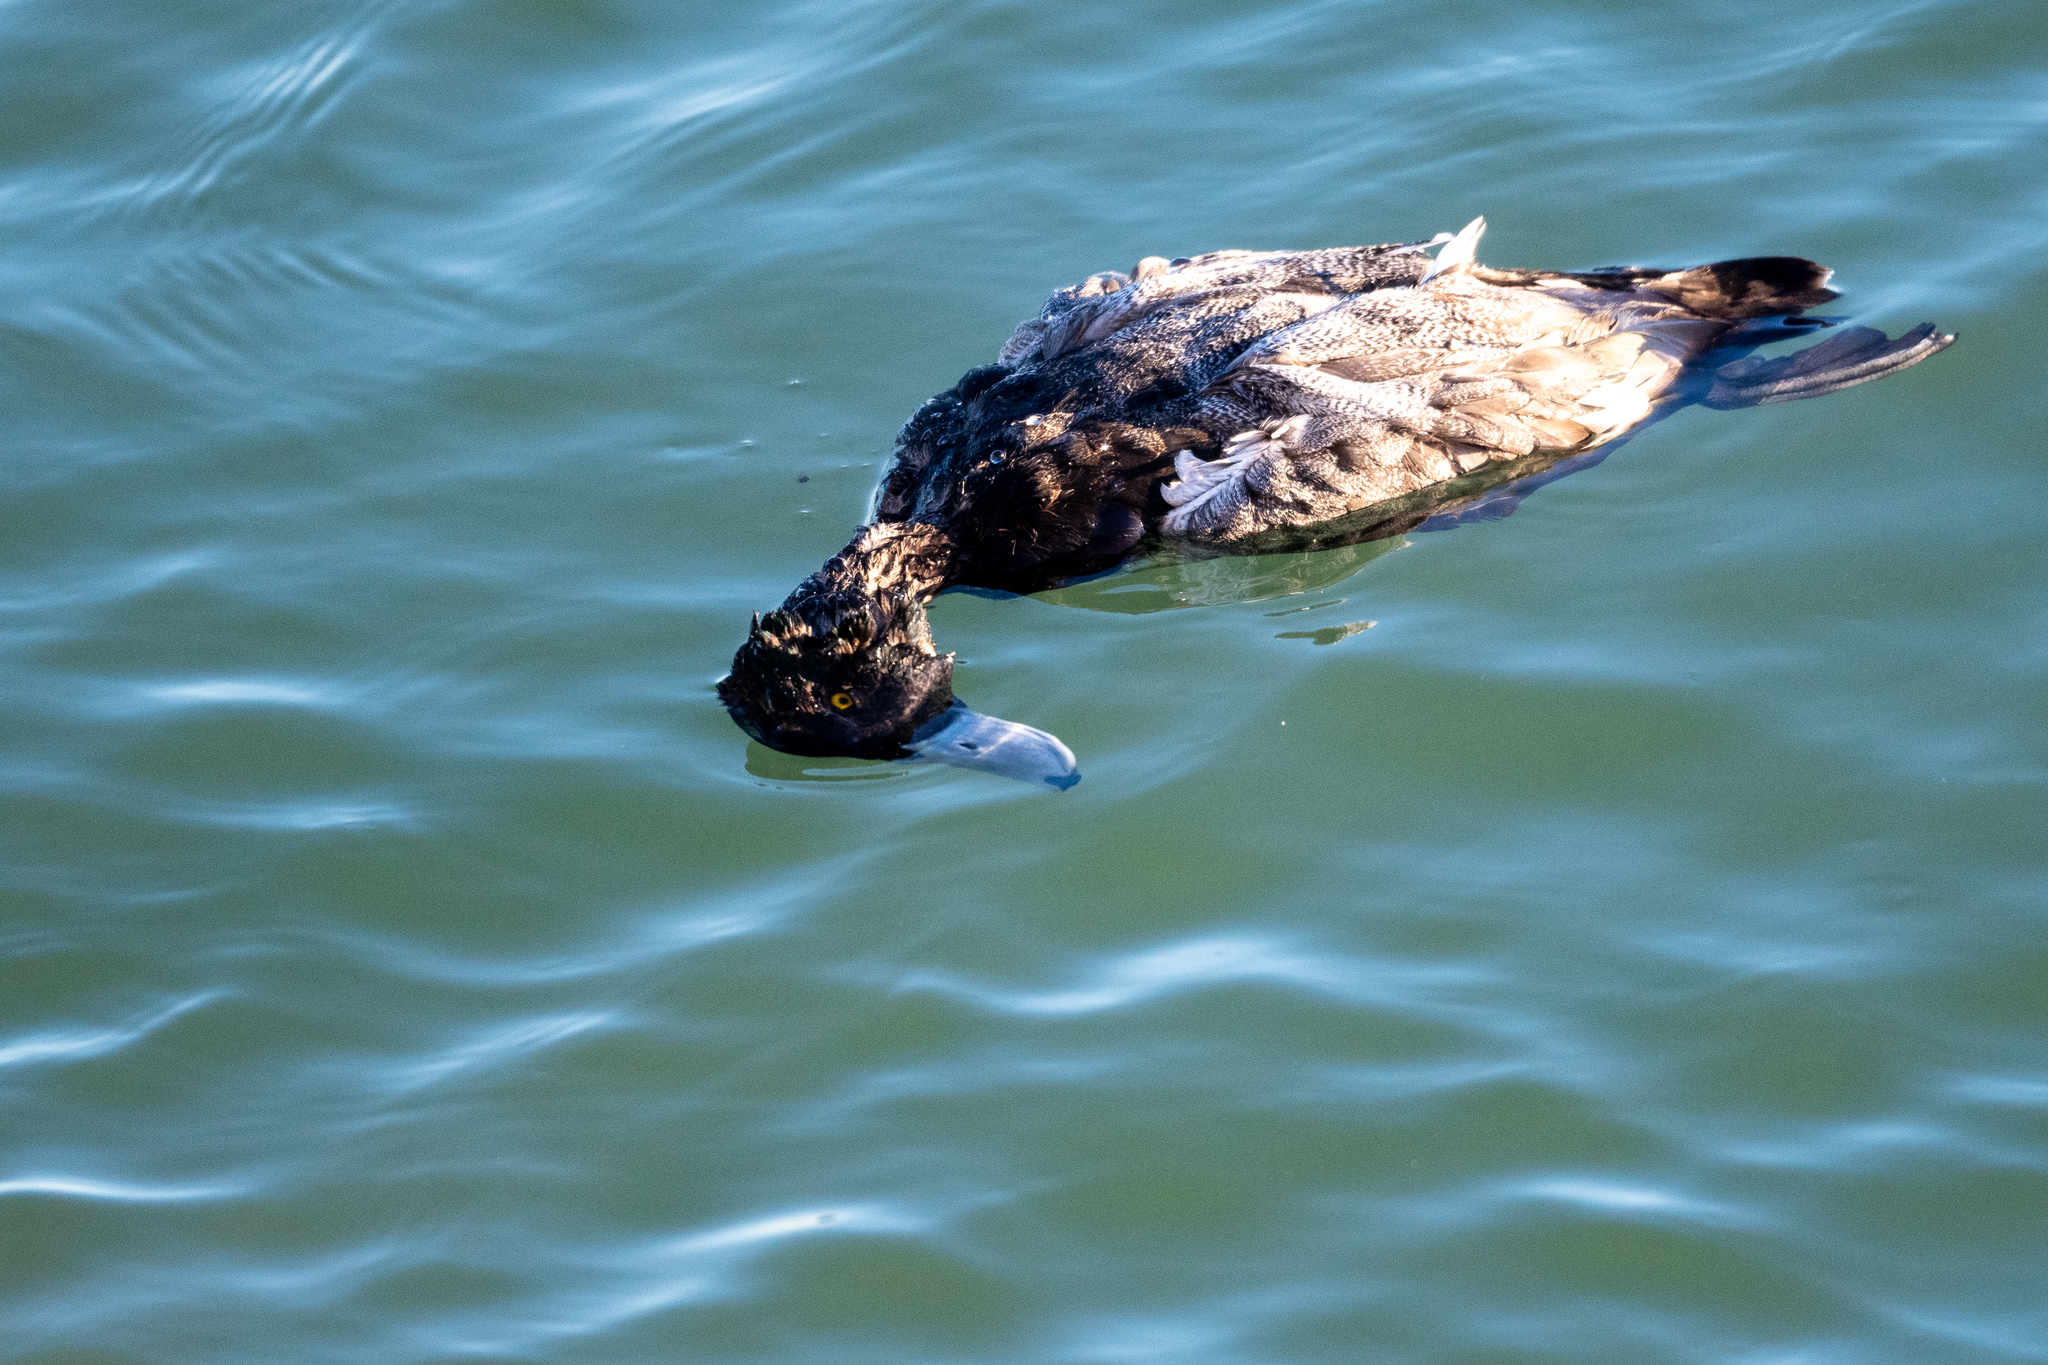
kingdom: Animalia
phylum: Chordata
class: Aves
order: Anseriformes
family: Anatidae
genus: Aythya
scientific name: Aythya marila
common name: Greater scaup
